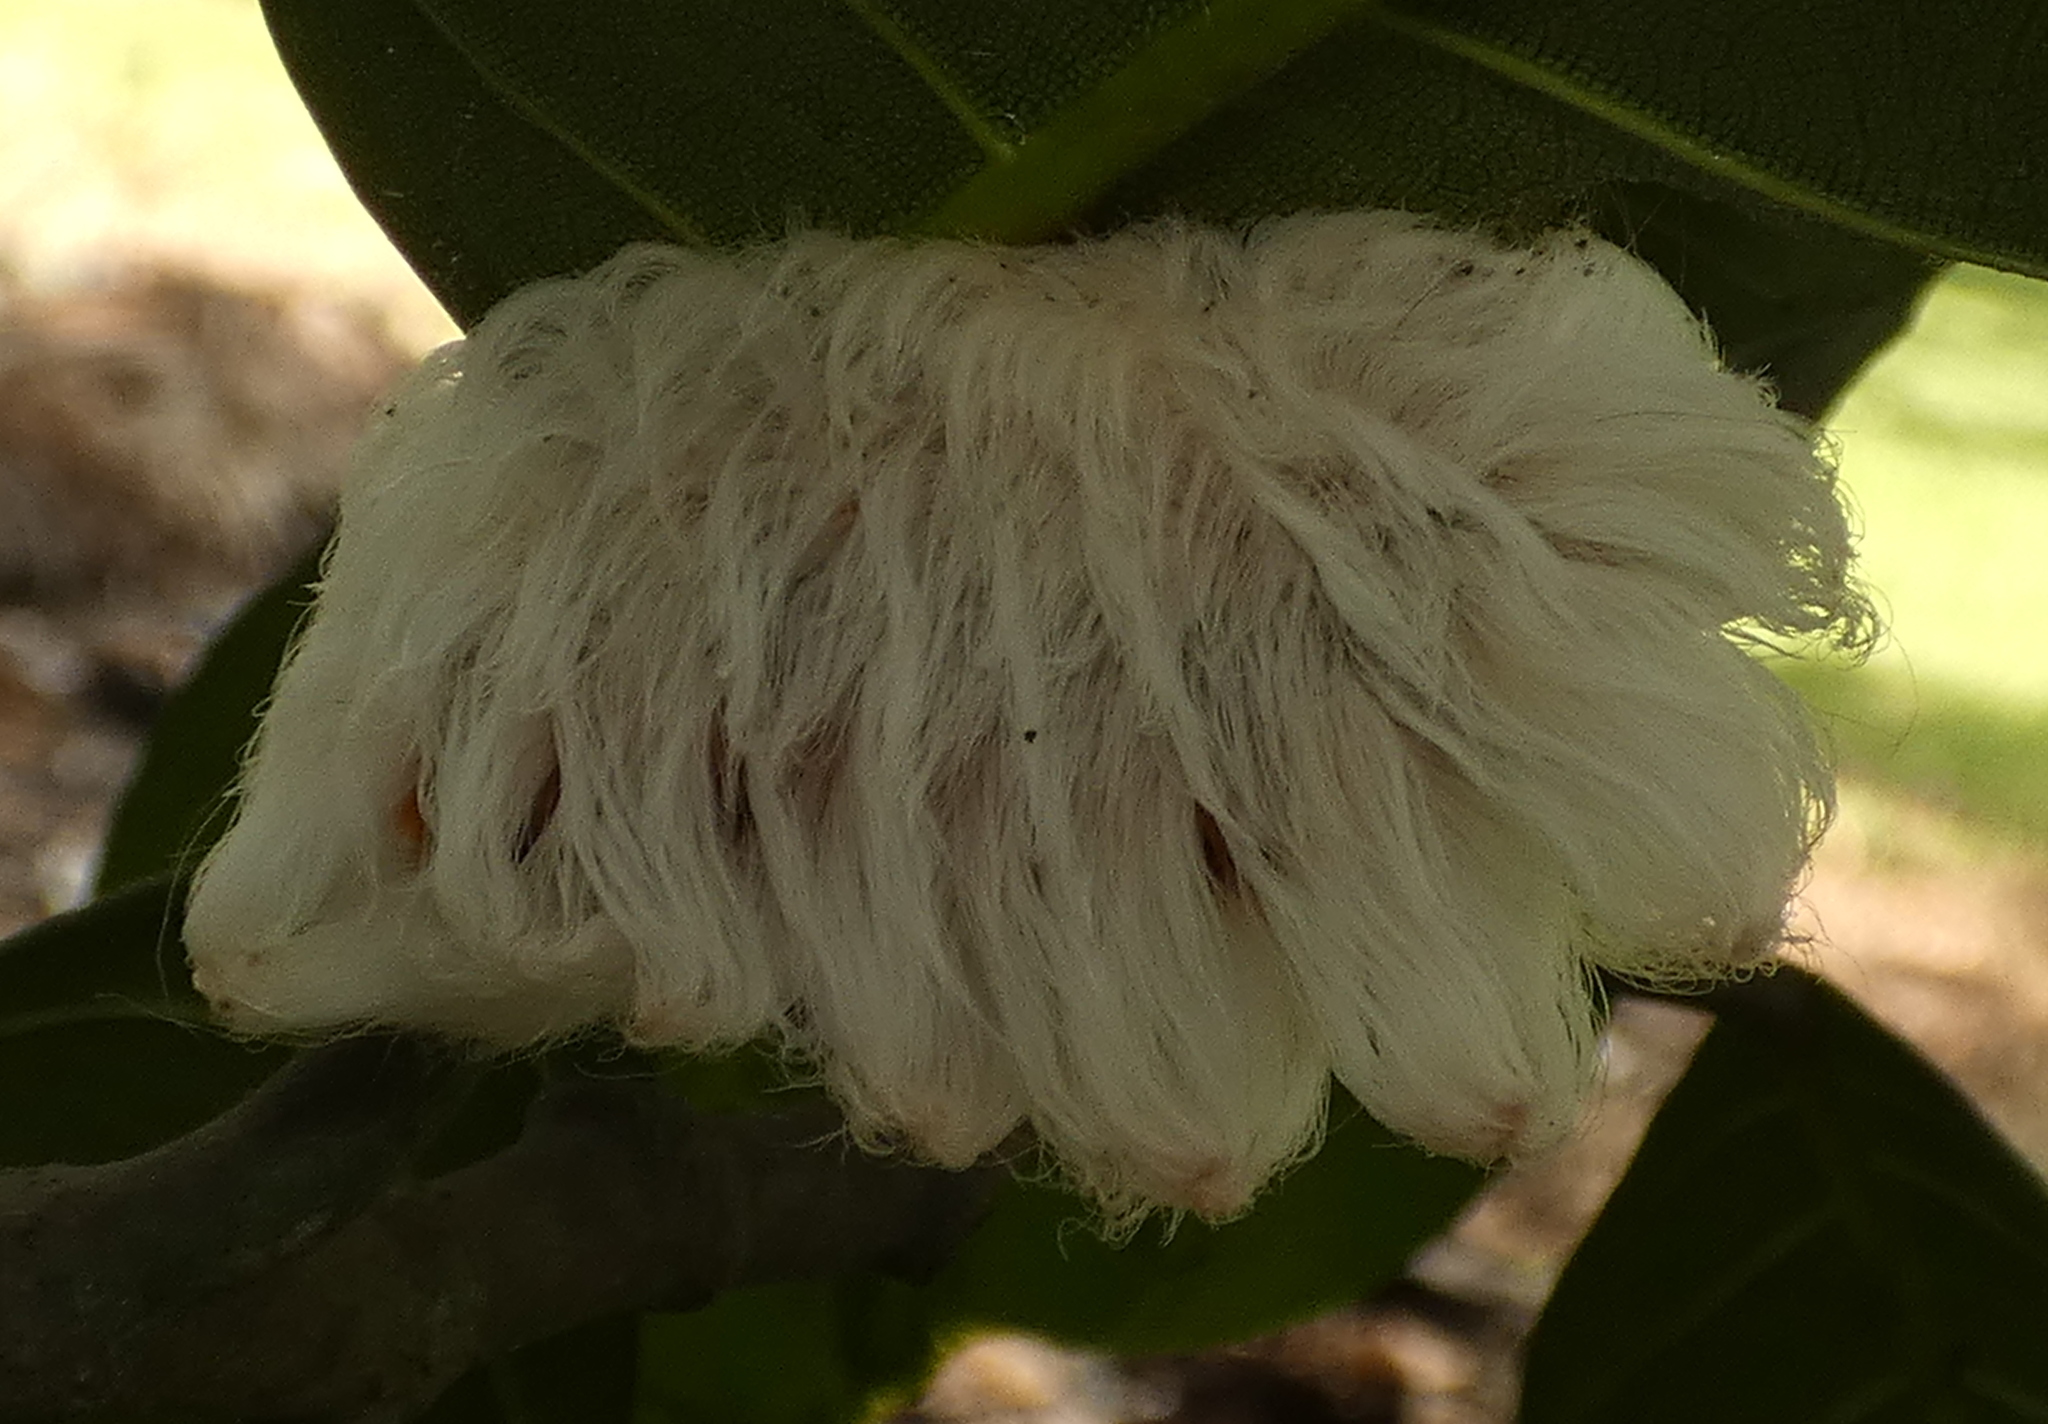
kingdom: Animalia
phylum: Arthropoda
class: Insecta
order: Lepidoptera
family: Megalopygidae
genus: Megalopyge
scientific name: Megalopyge
